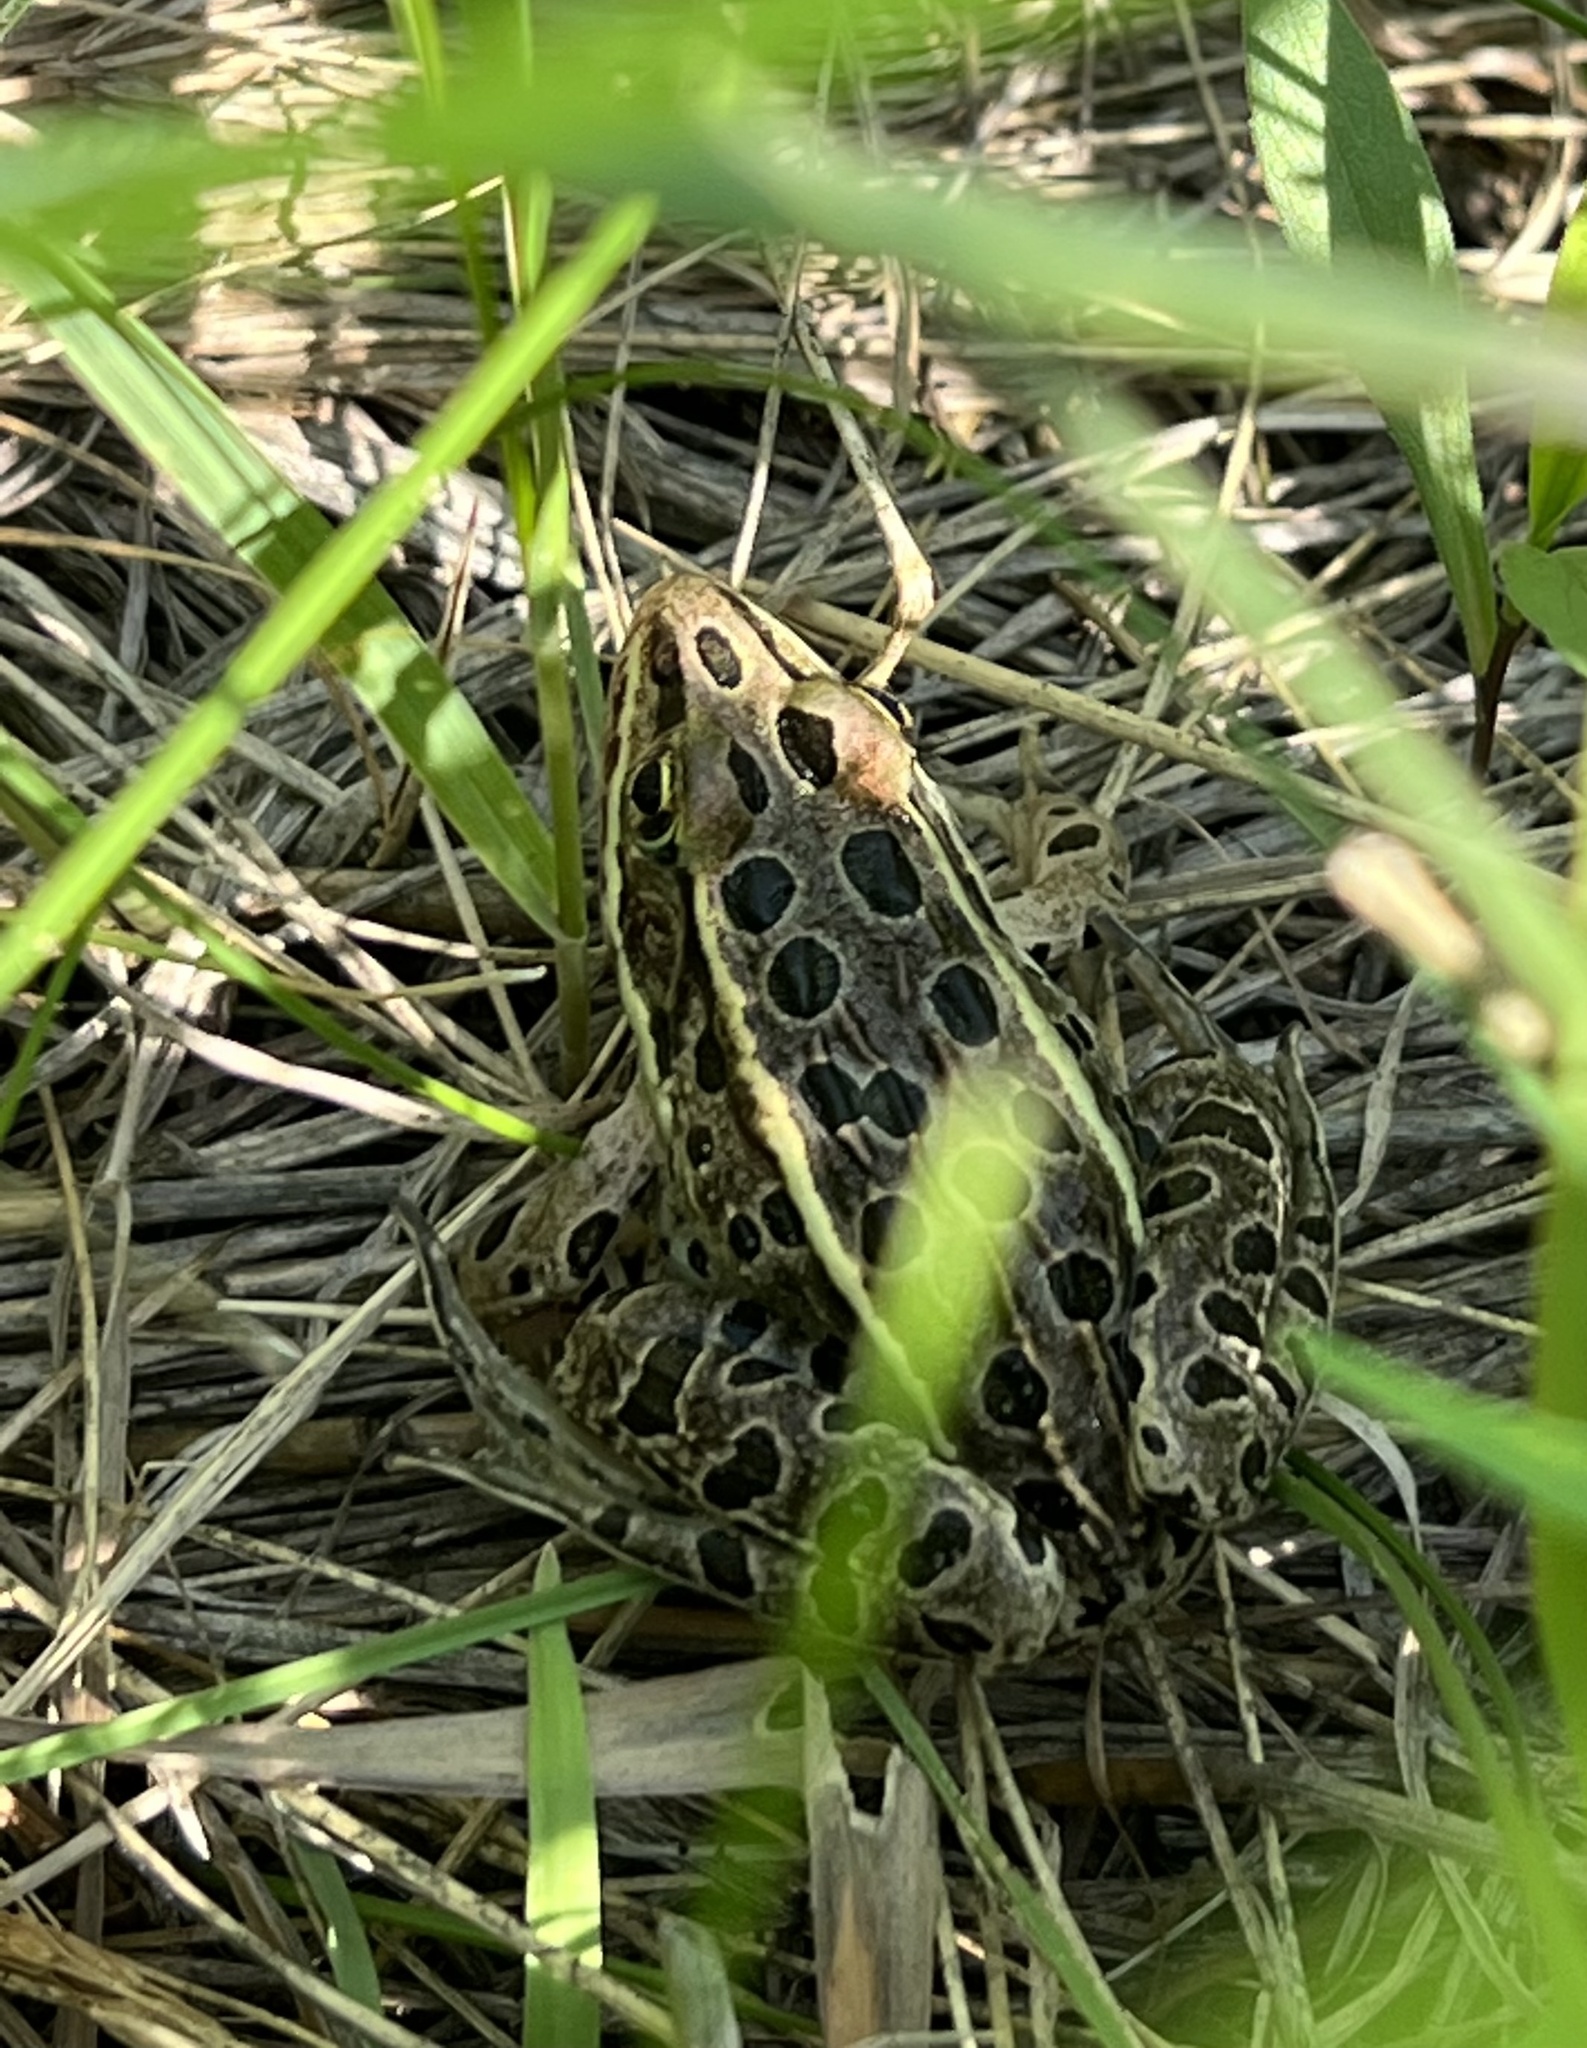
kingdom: Animalia
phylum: Chordata
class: Amphibia
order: Anura
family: Ranidae
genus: Lithobates
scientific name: Lithobates pipiens
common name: Northern leopard frog
